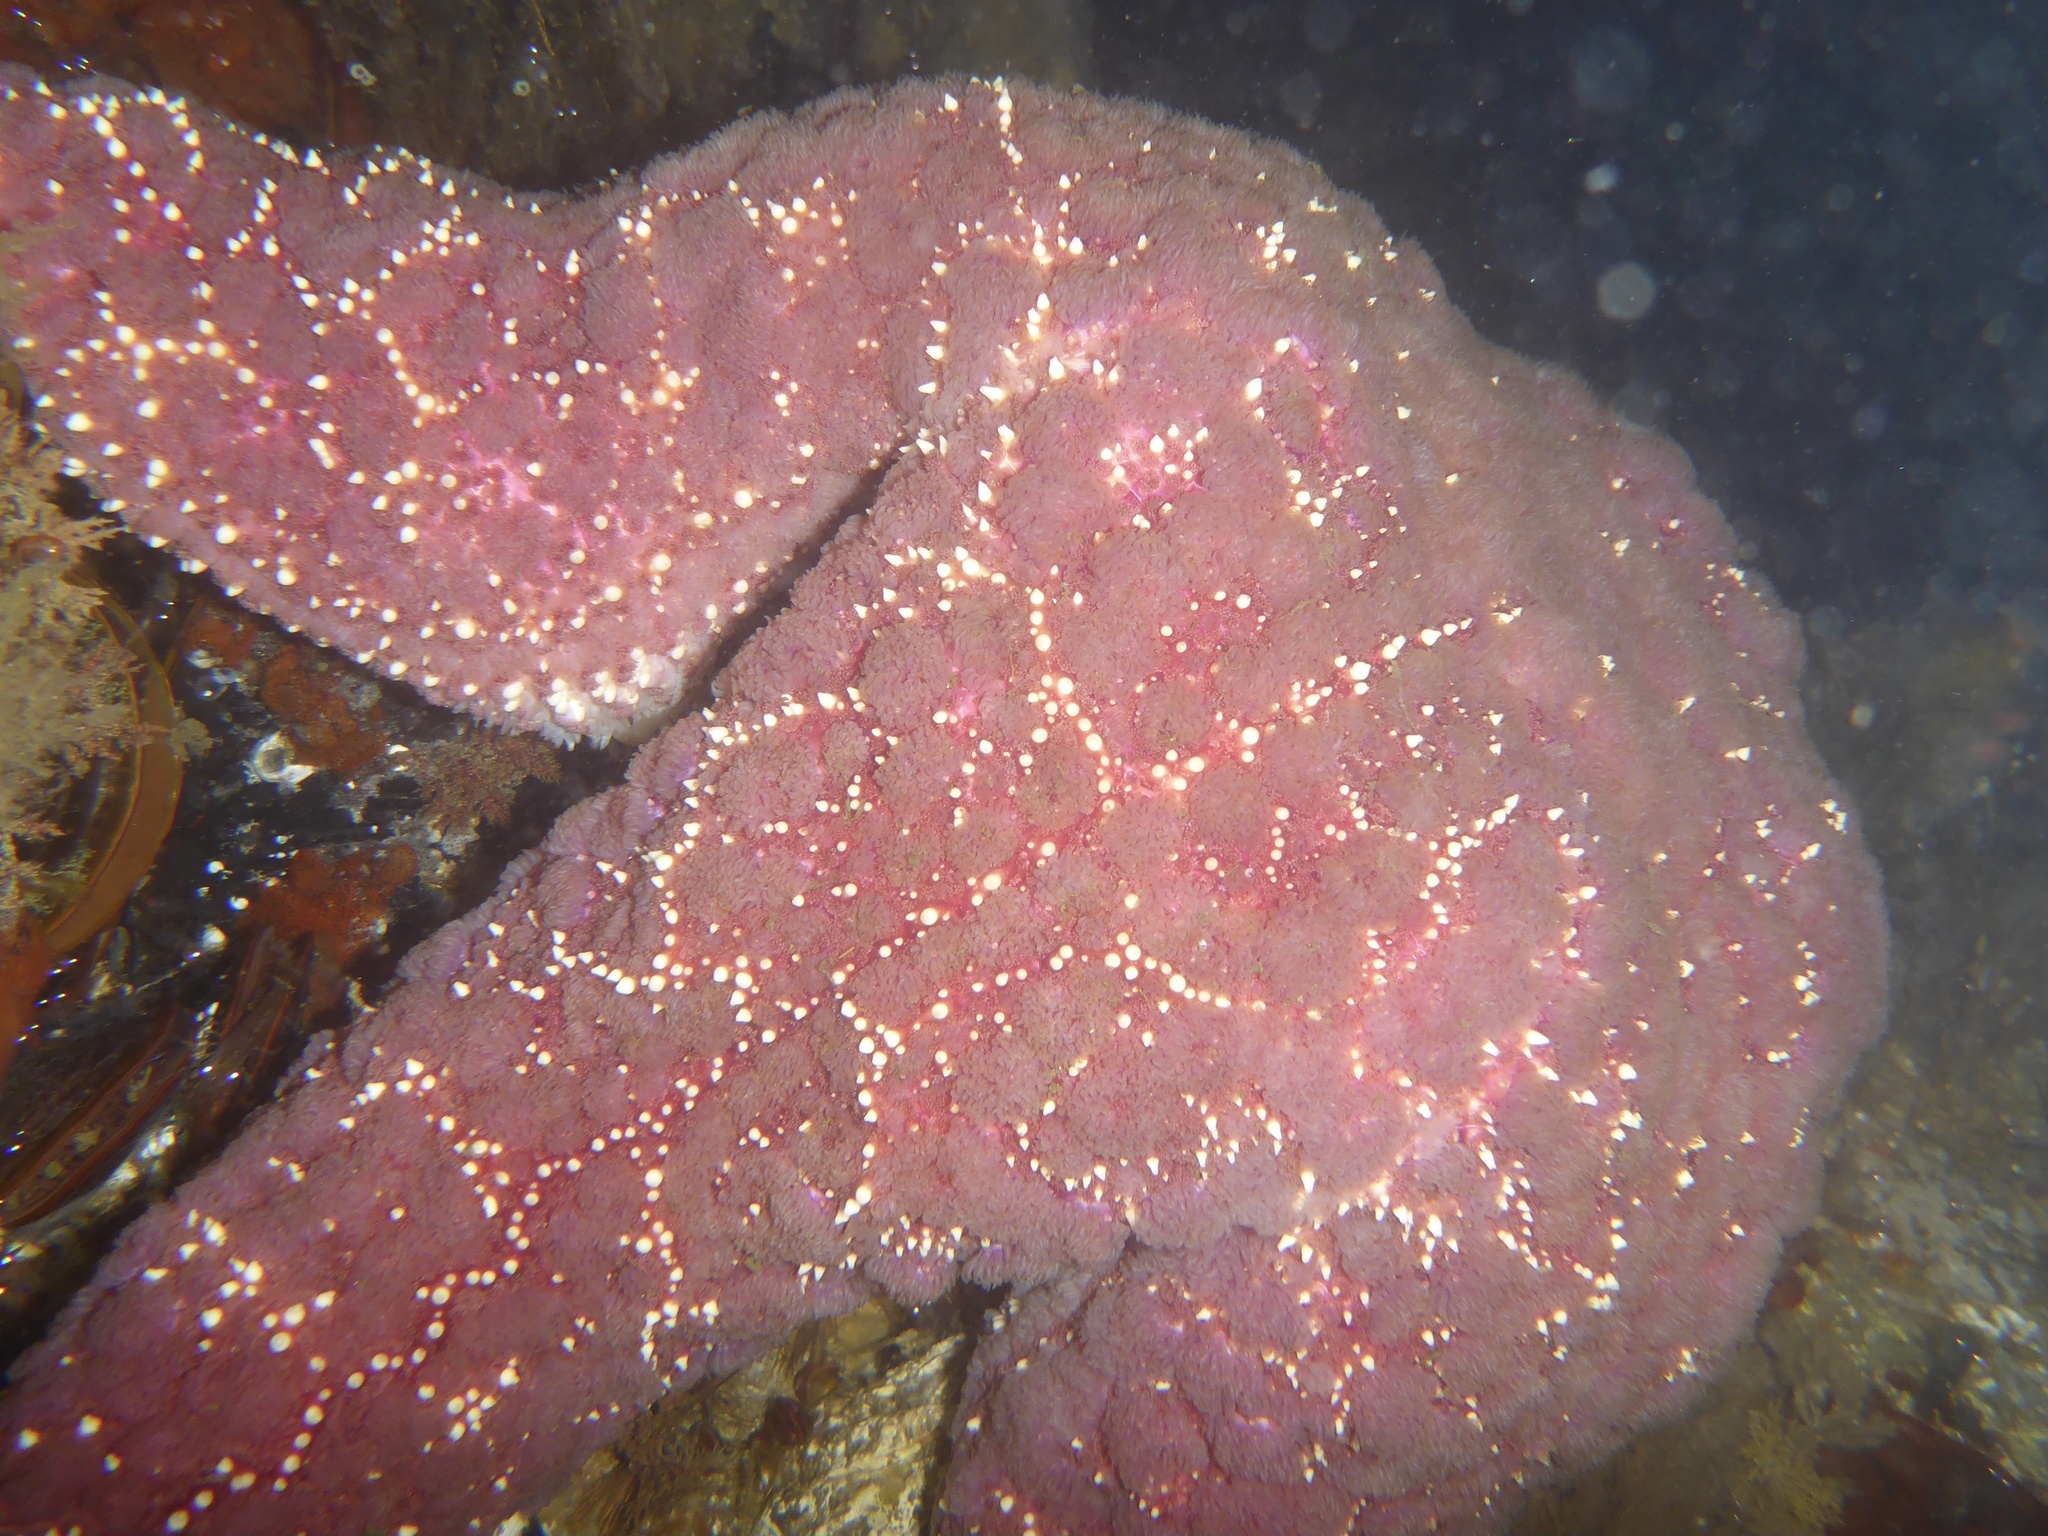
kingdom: Animalia
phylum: Echinodermata
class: Asteroidea
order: Forcipulatida
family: Asteriidae
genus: Pisaster
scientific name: Pisaster ochraceus
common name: Ochre stars
